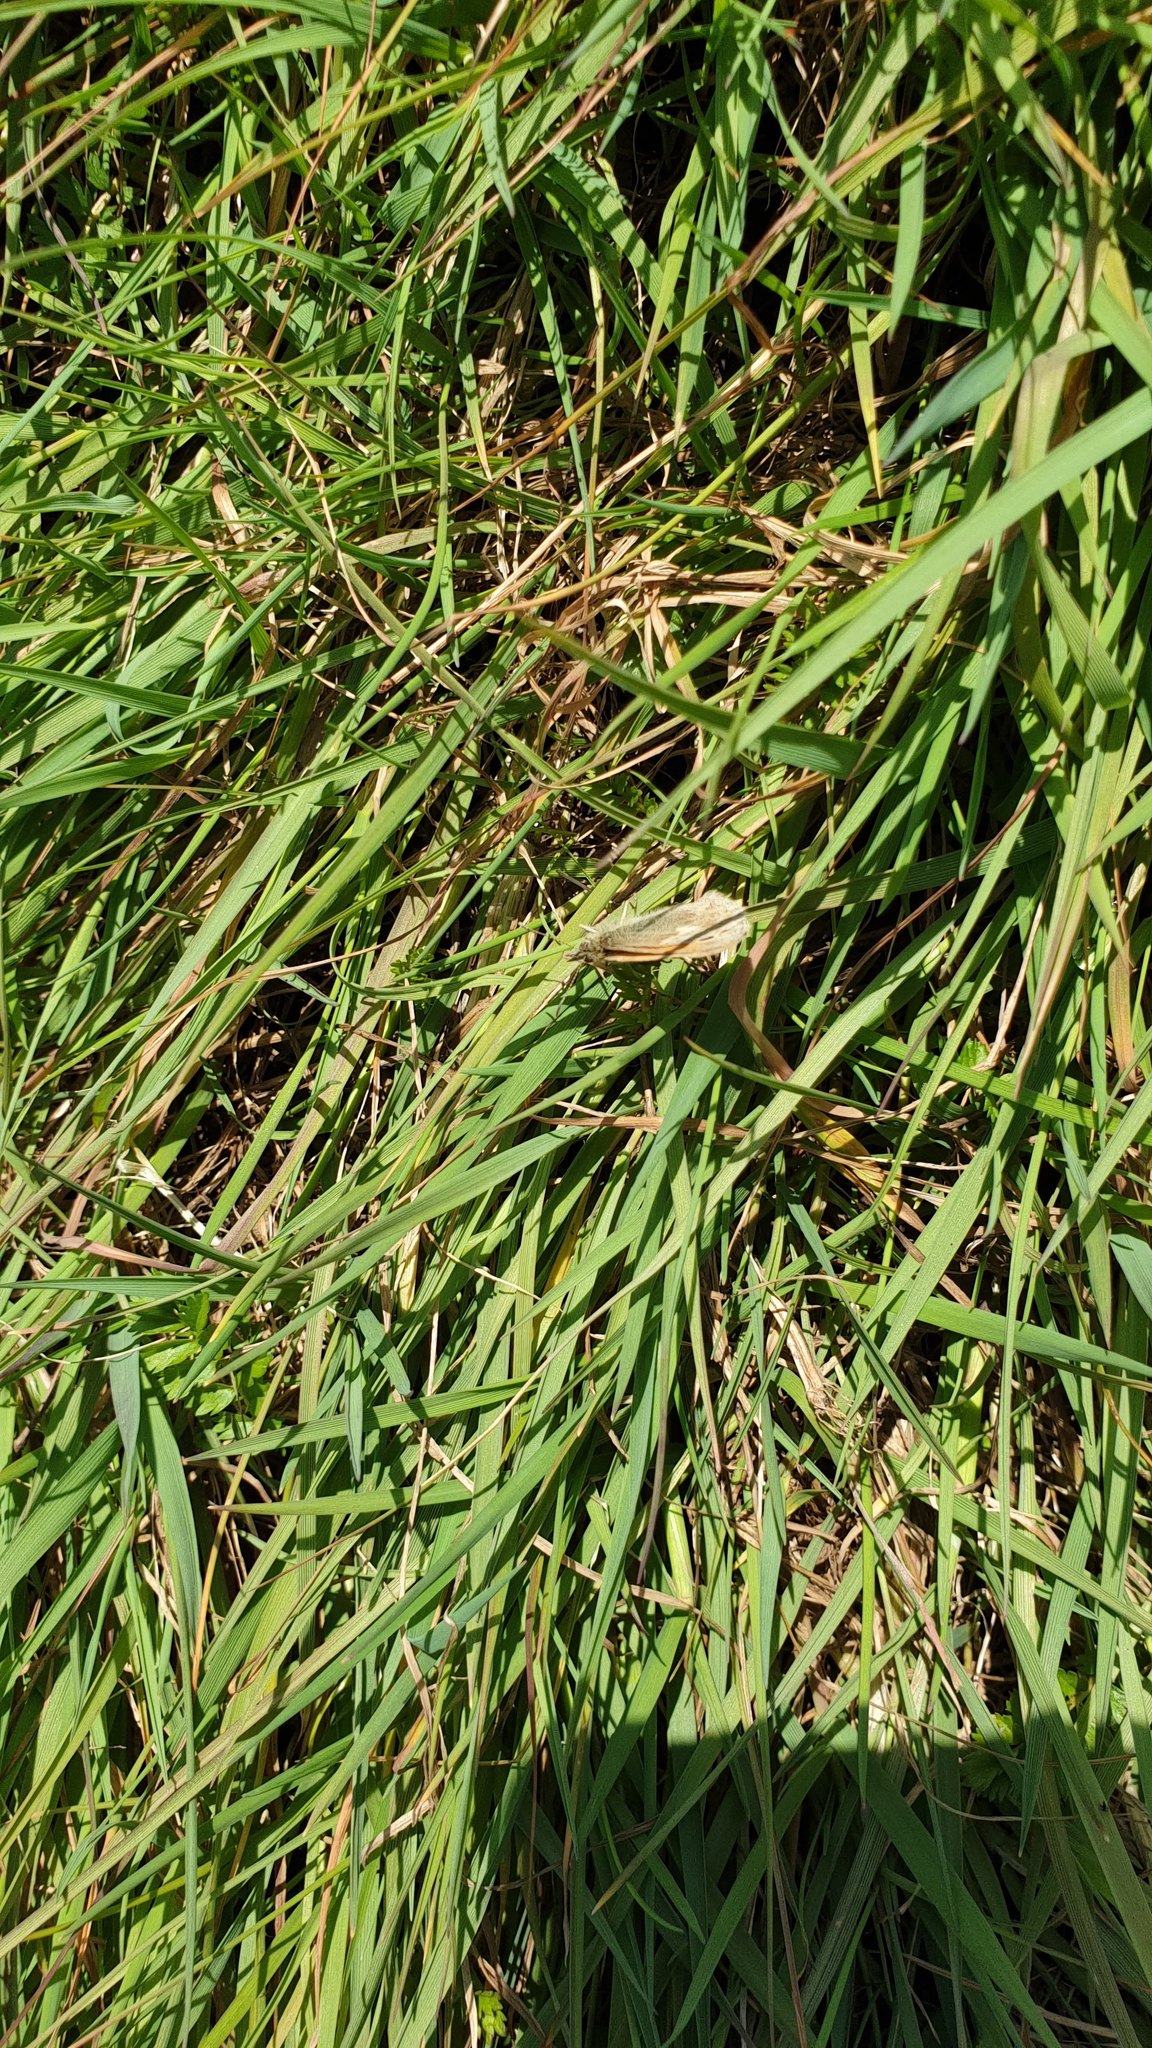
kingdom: Animalia
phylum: Arthropoda
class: Insecta
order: Lepidoptera
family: Nymphalidae
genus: Coenonympha
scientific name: Coenonympha pamphilus
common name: Small heath
